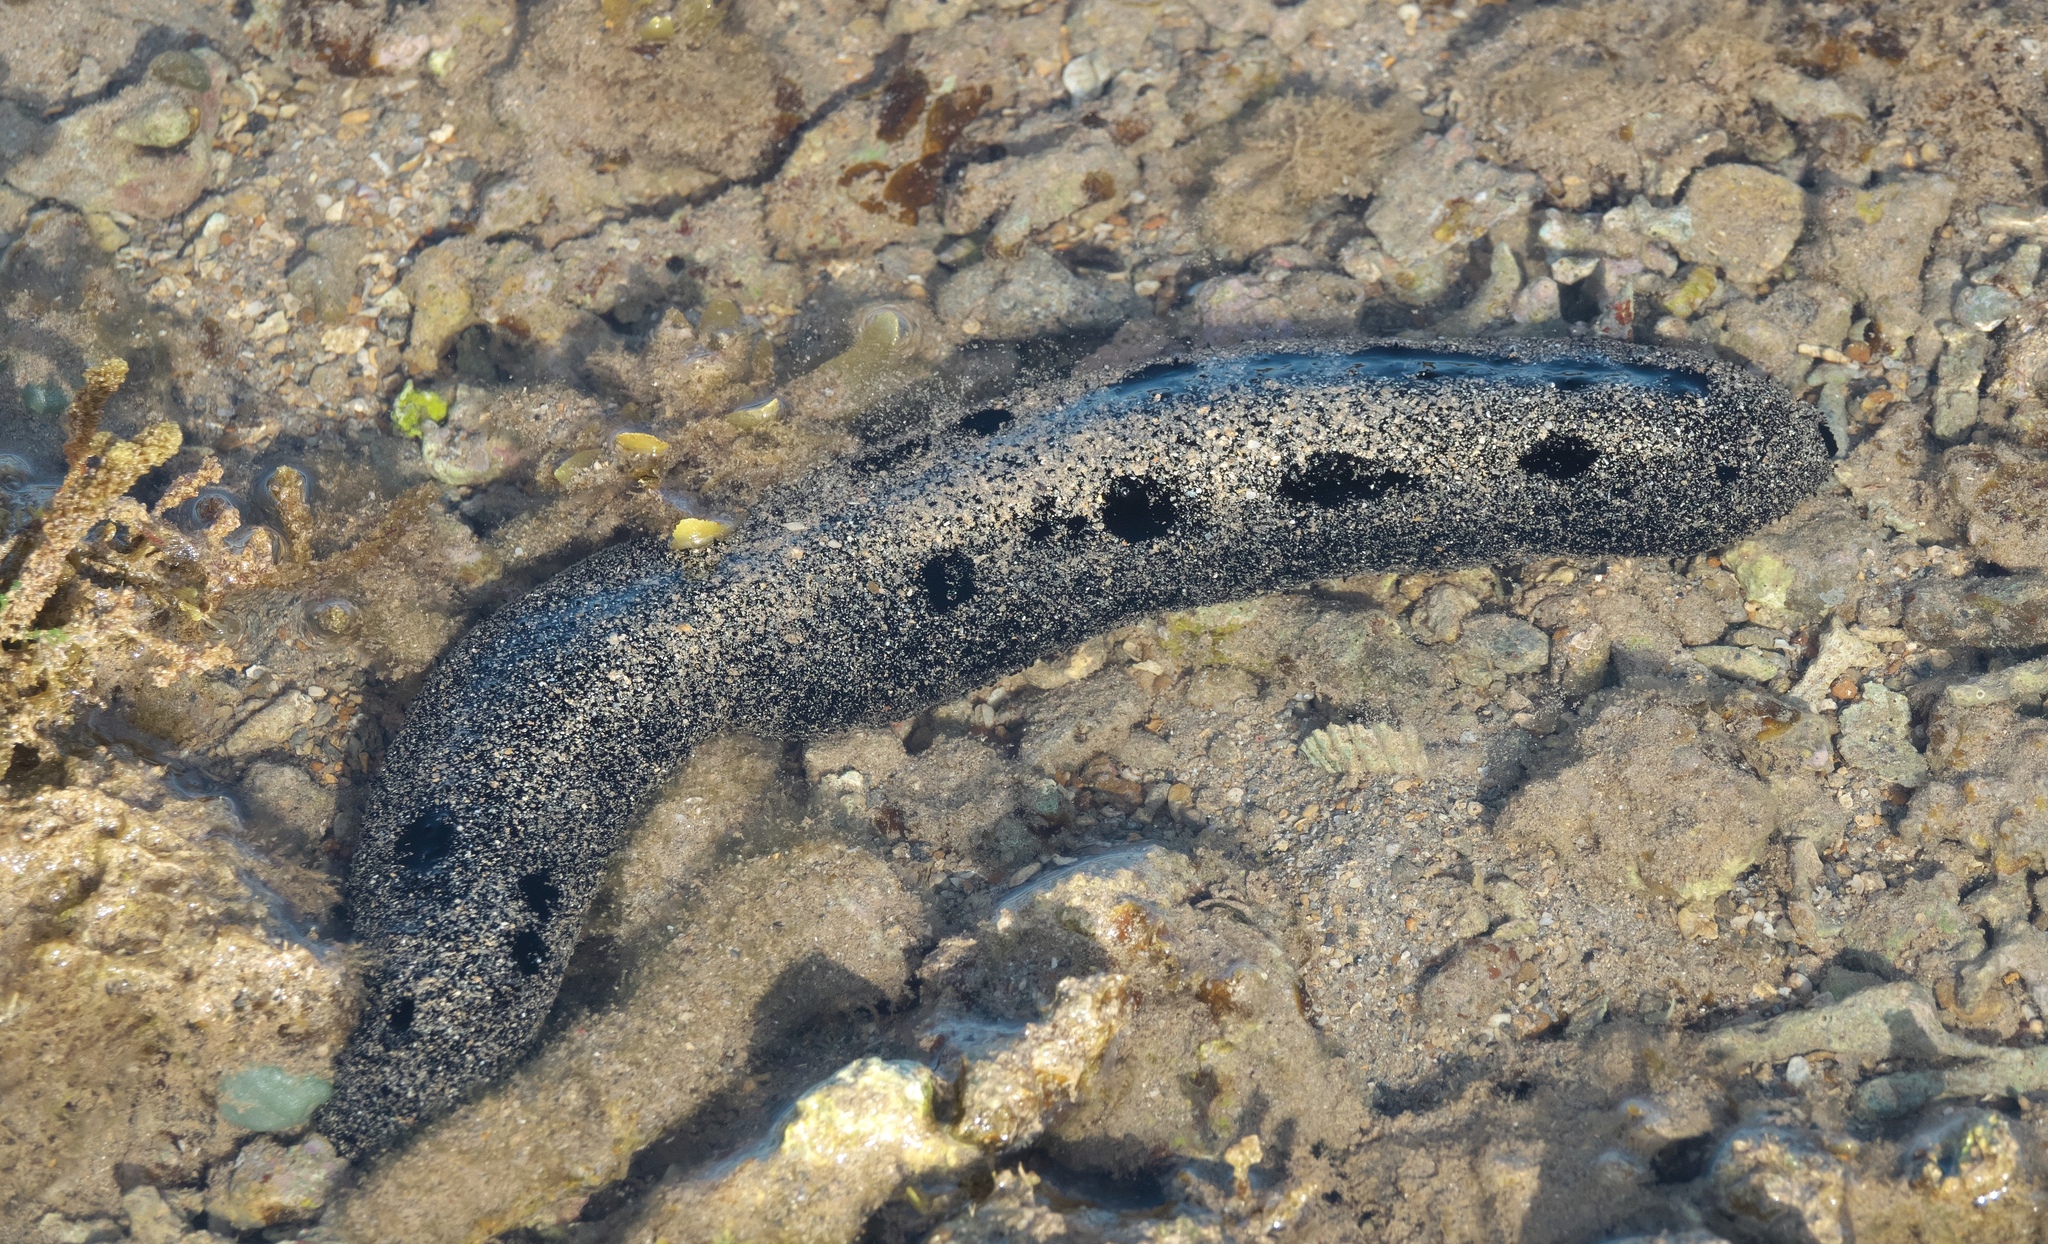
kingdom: Animalia
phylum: Echinodermata
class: Holothuroidea
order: Holothuriida
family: Holothuriidae
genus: Holothuria
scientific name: Holothuria atra
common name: Lollyfish
